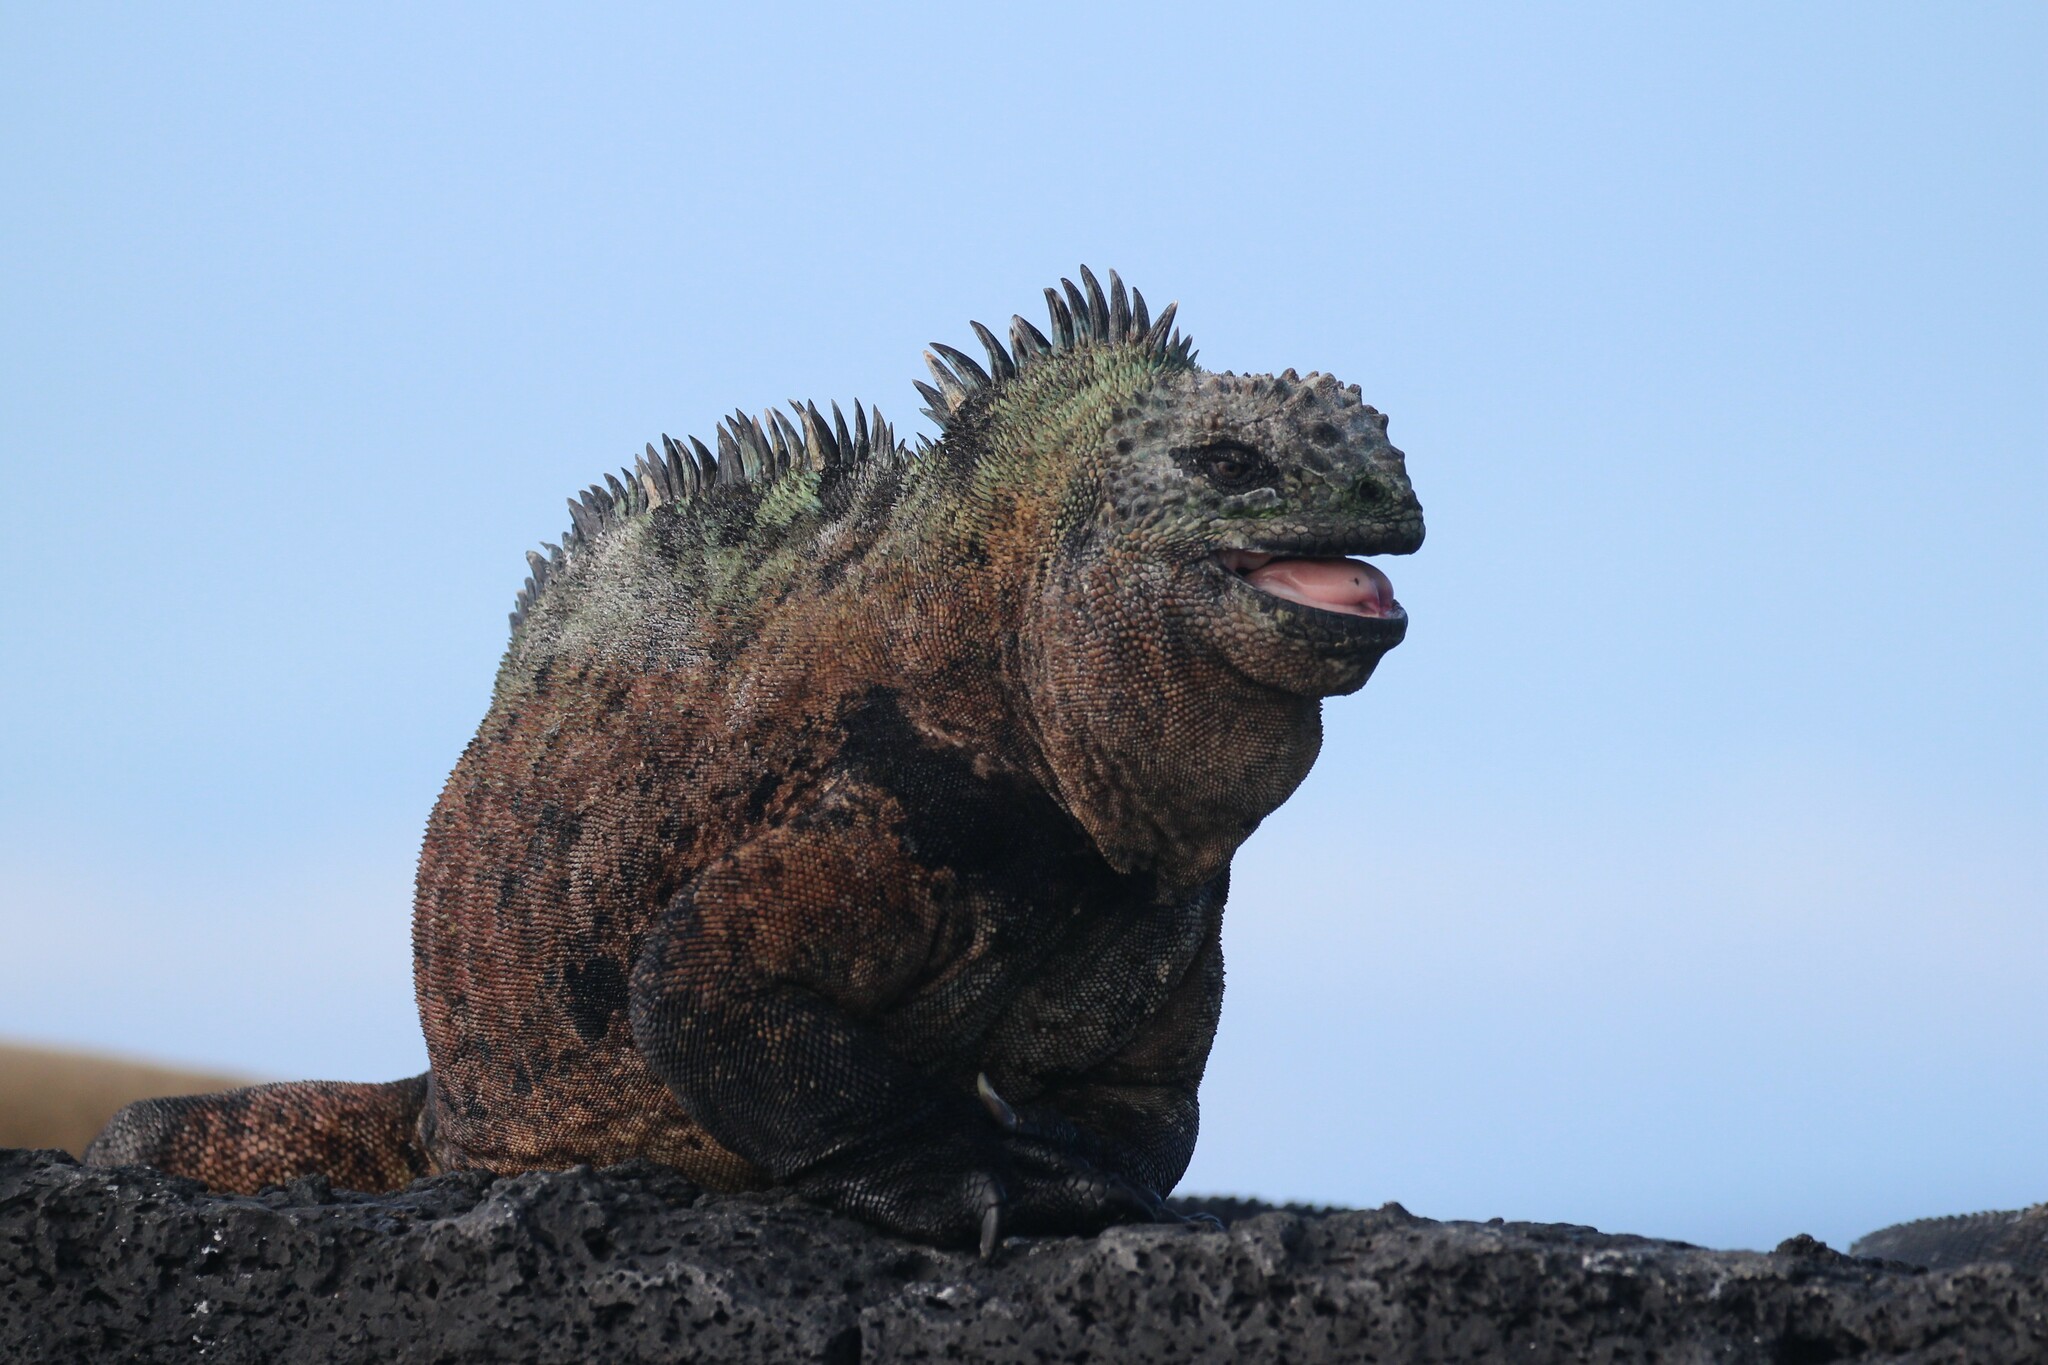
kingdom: Animalia
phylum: Chordata
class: Squamata
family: Iguanidae
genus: Amblyrhynchus
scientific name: Amblyrhynchus cristatus
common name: Marine iguana
